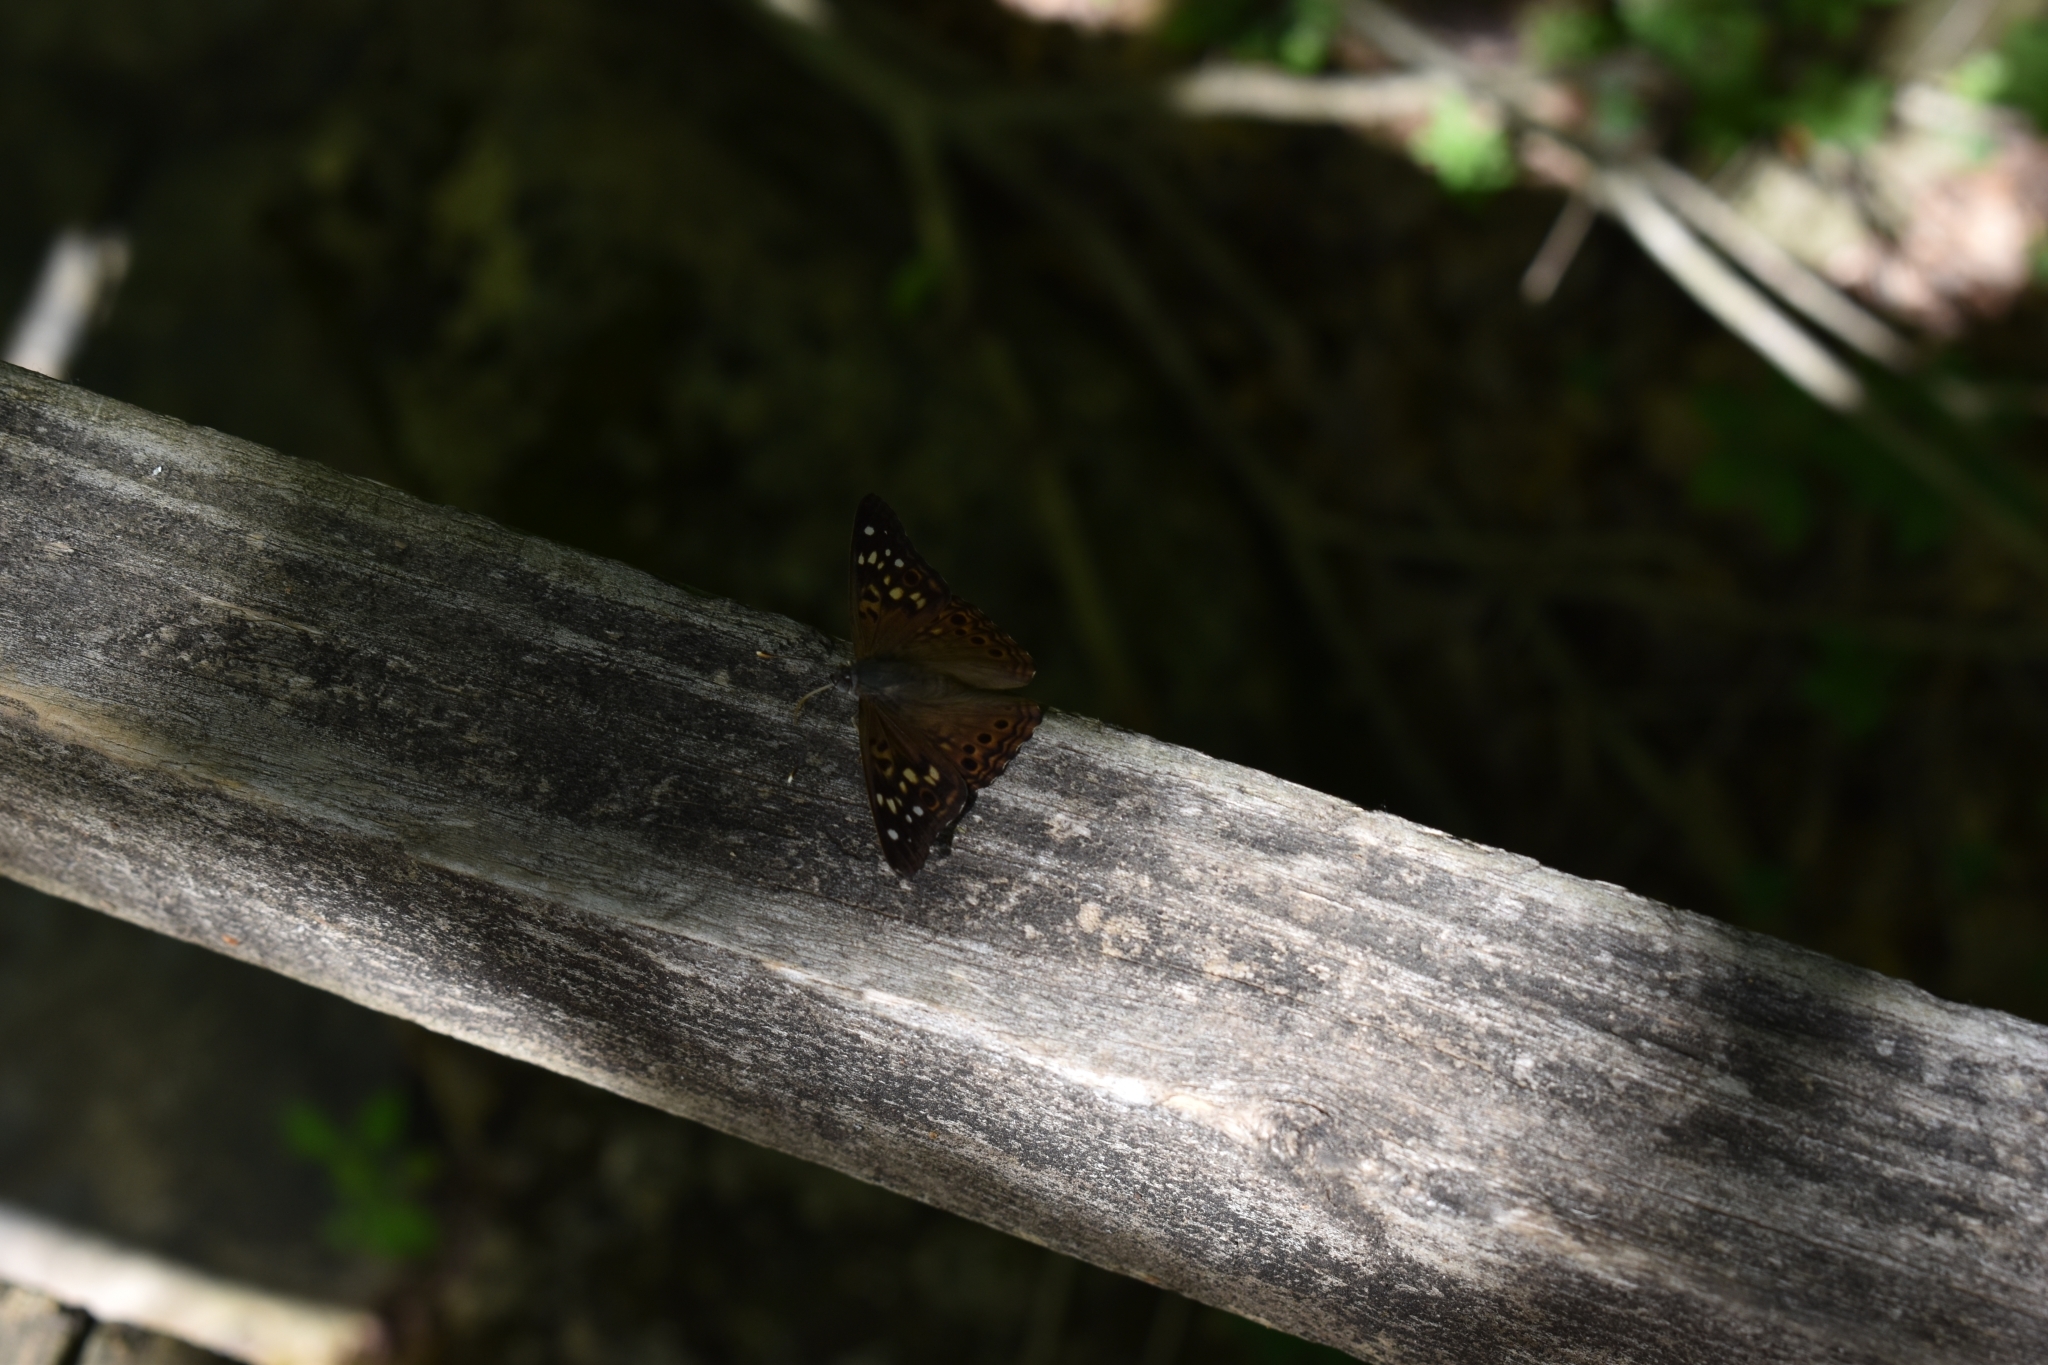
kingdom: Animalia
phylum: Arthropoda
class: Insecta
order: Lepidoptera
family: Nymphalidae
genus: Asterocampa
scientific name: Asterocampa celtis
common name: Hackberry emperor
